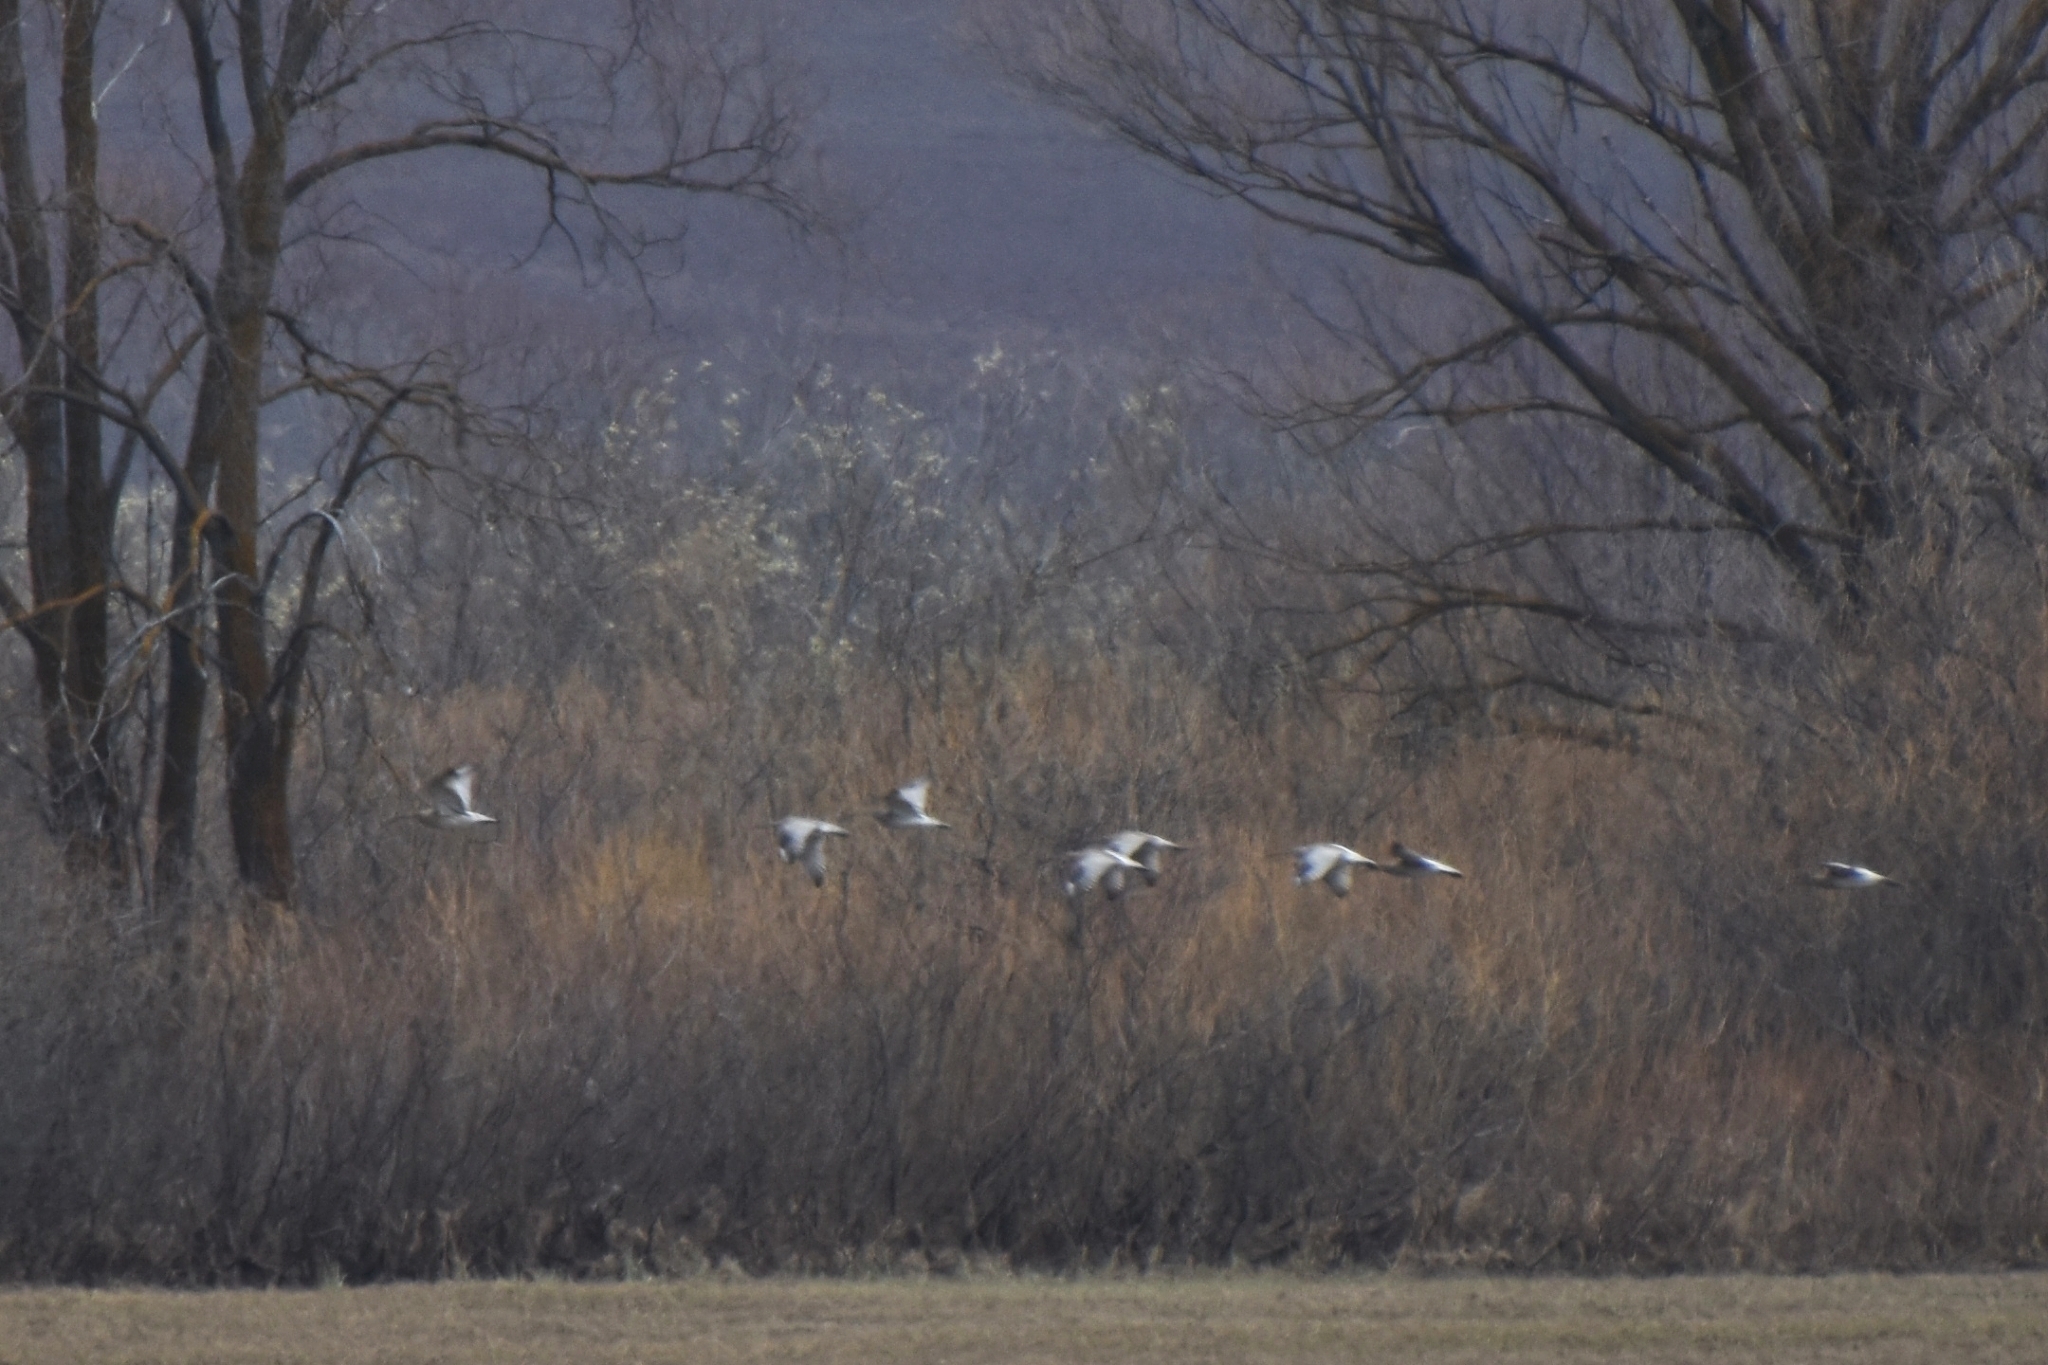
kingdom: Animalia
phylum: Chordata
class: Aves
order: Charadriiformes
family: Scolopacidae
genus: Numenius
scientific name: Numenius arquata
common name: Eurasian curlew
